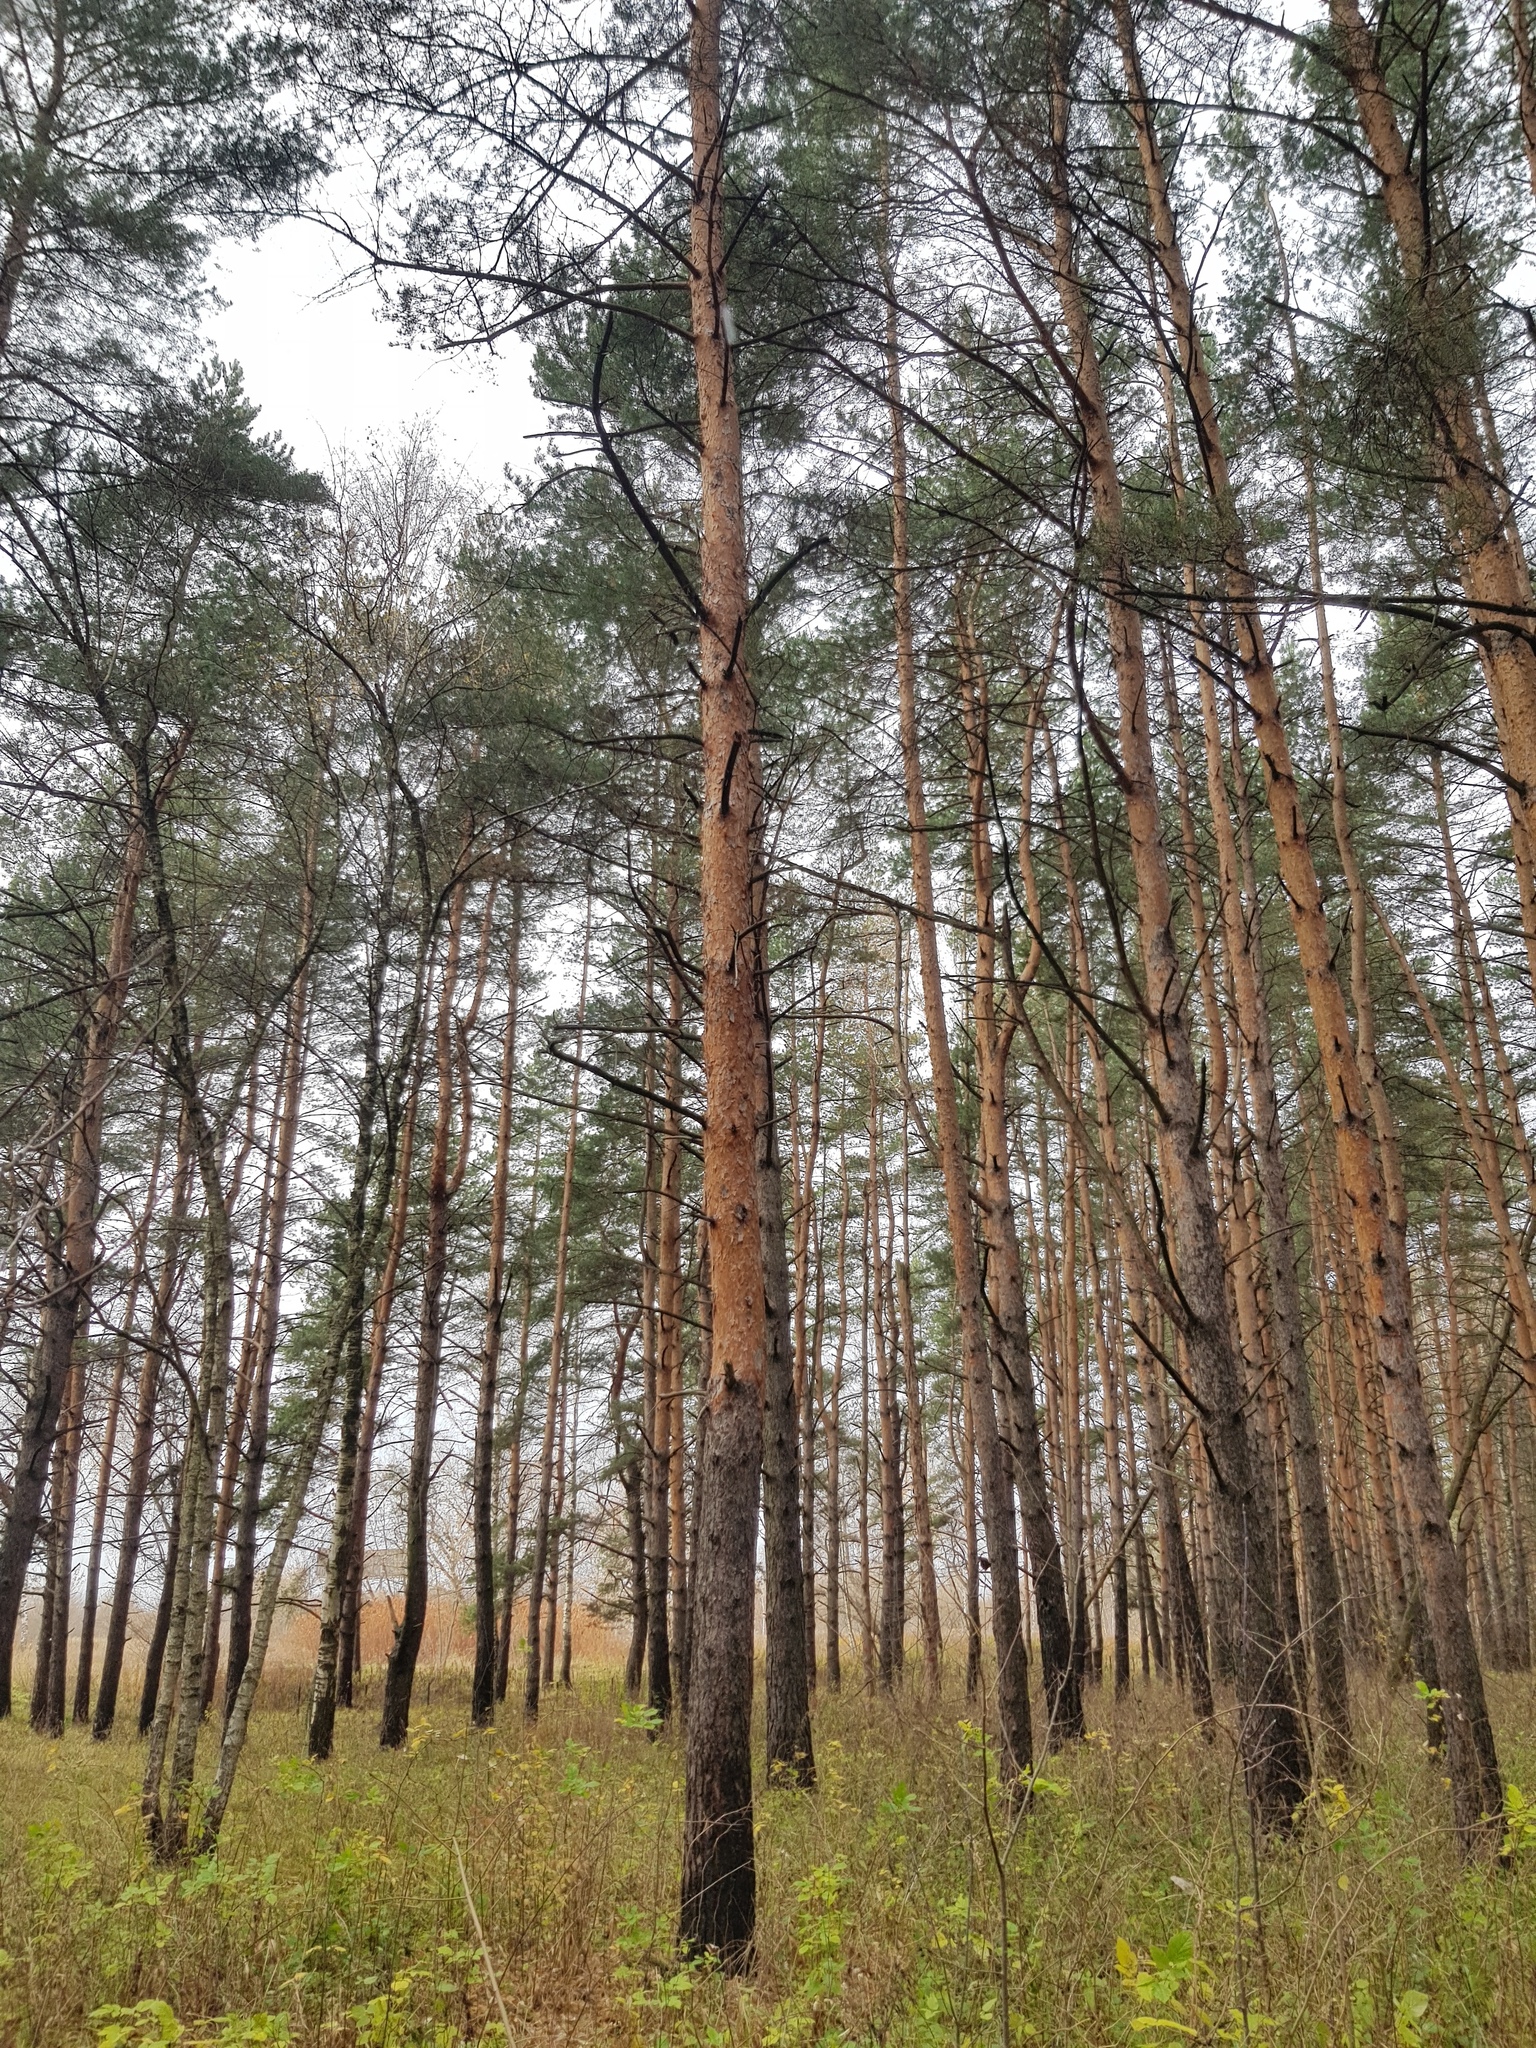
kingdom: Plantae
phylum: Tracheophyta
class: Pinopsida
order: Pinales
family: Pinaceae
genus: Pinus
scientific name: Pinus sylvestris
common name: Scots pine
